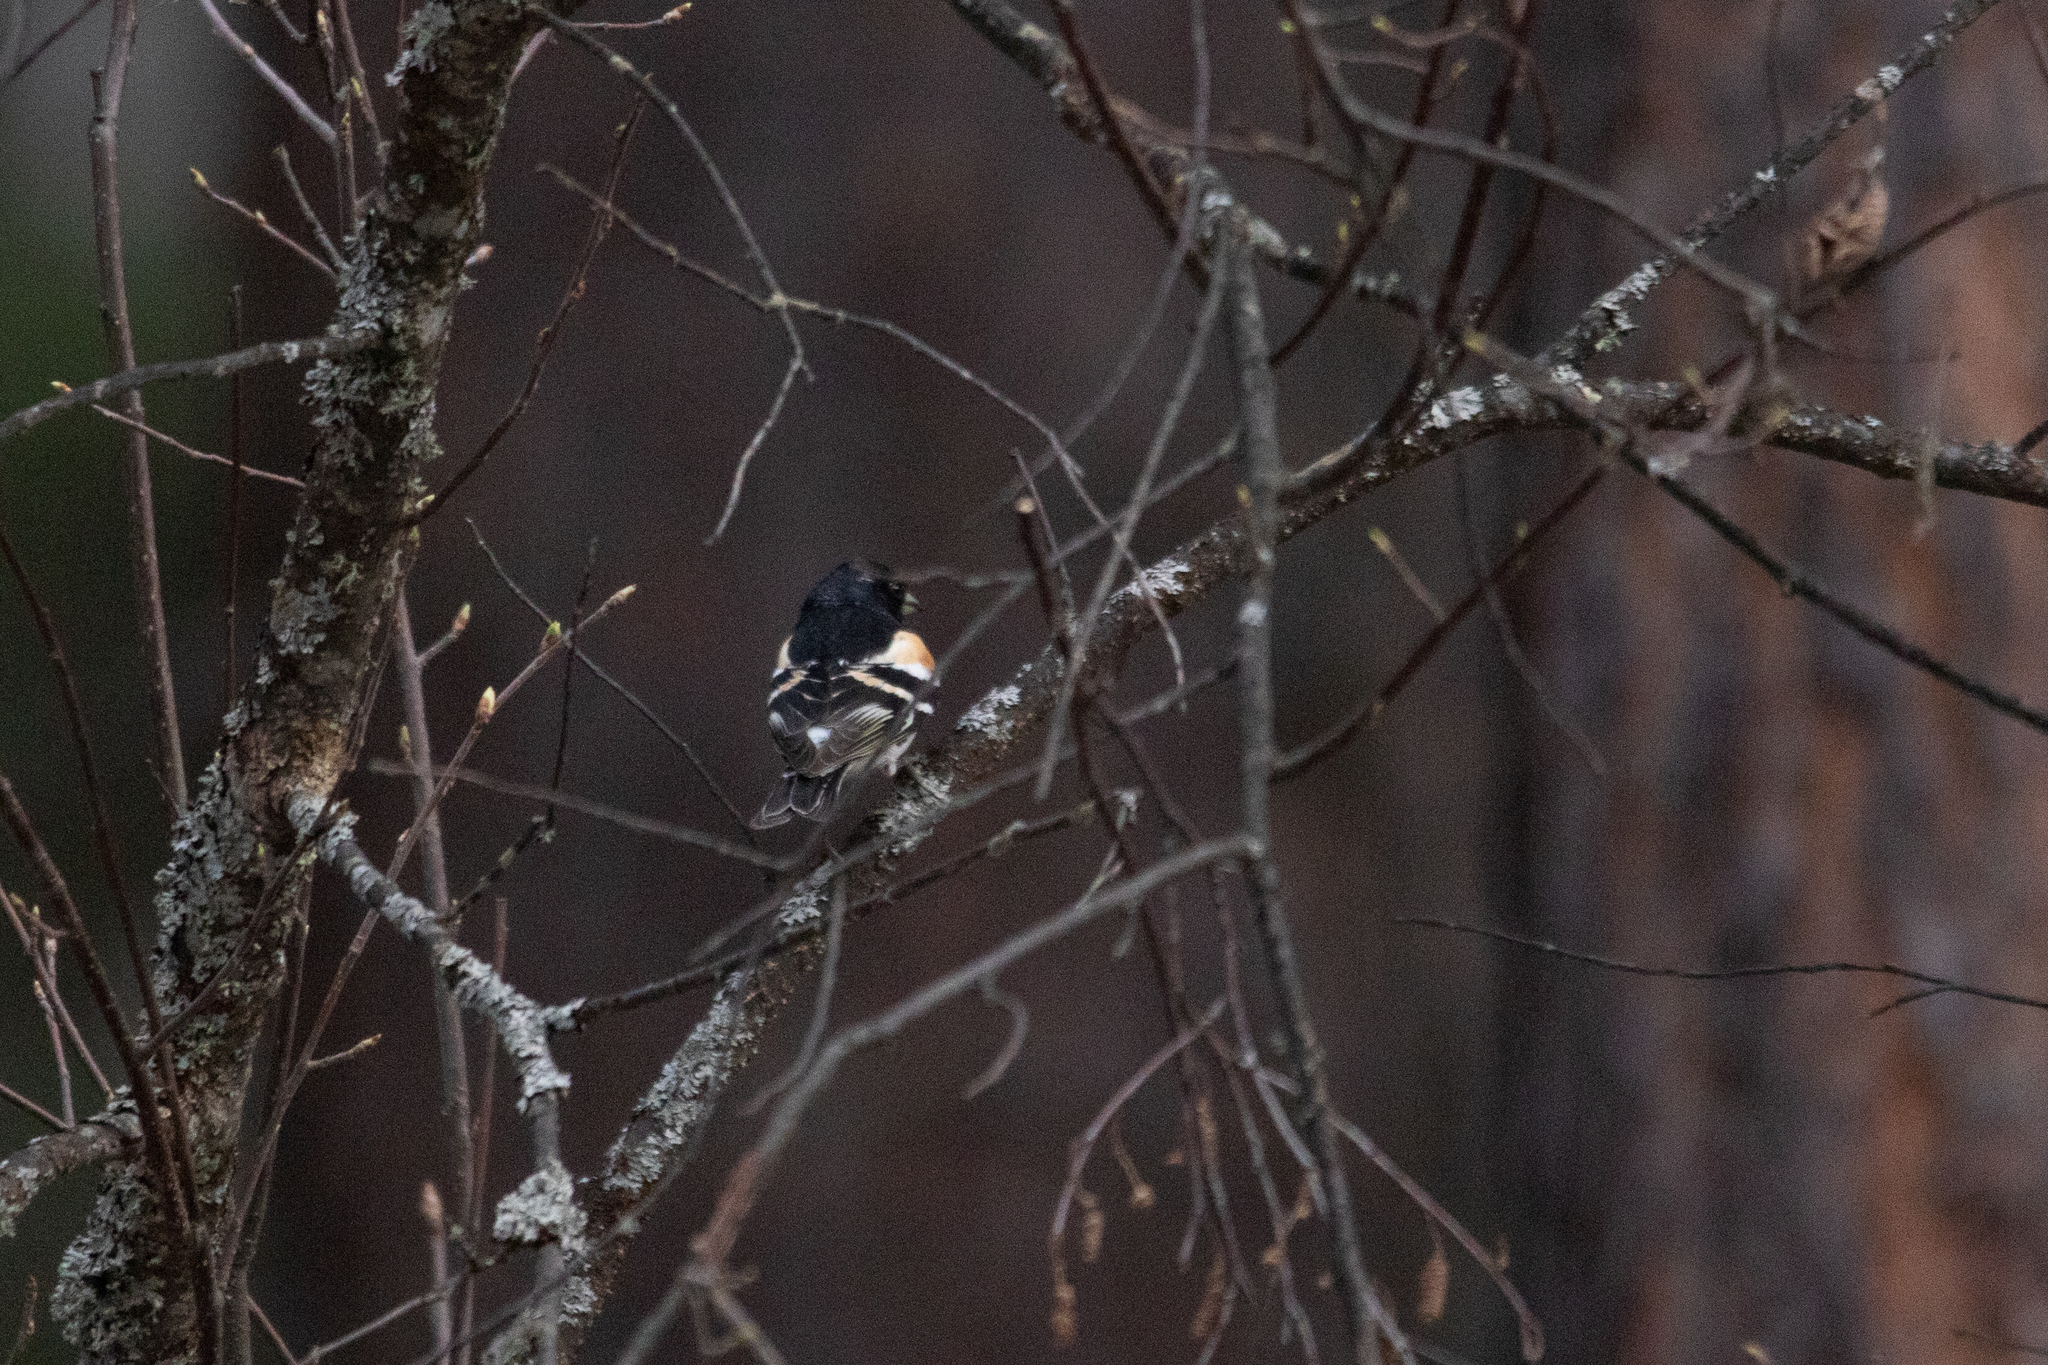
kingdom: Animalia
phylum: Chordata
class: Aves
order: Passeriformes
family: Fringillidae
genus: Fringilla
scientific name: Fringilla montifringilla
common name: Brambling
